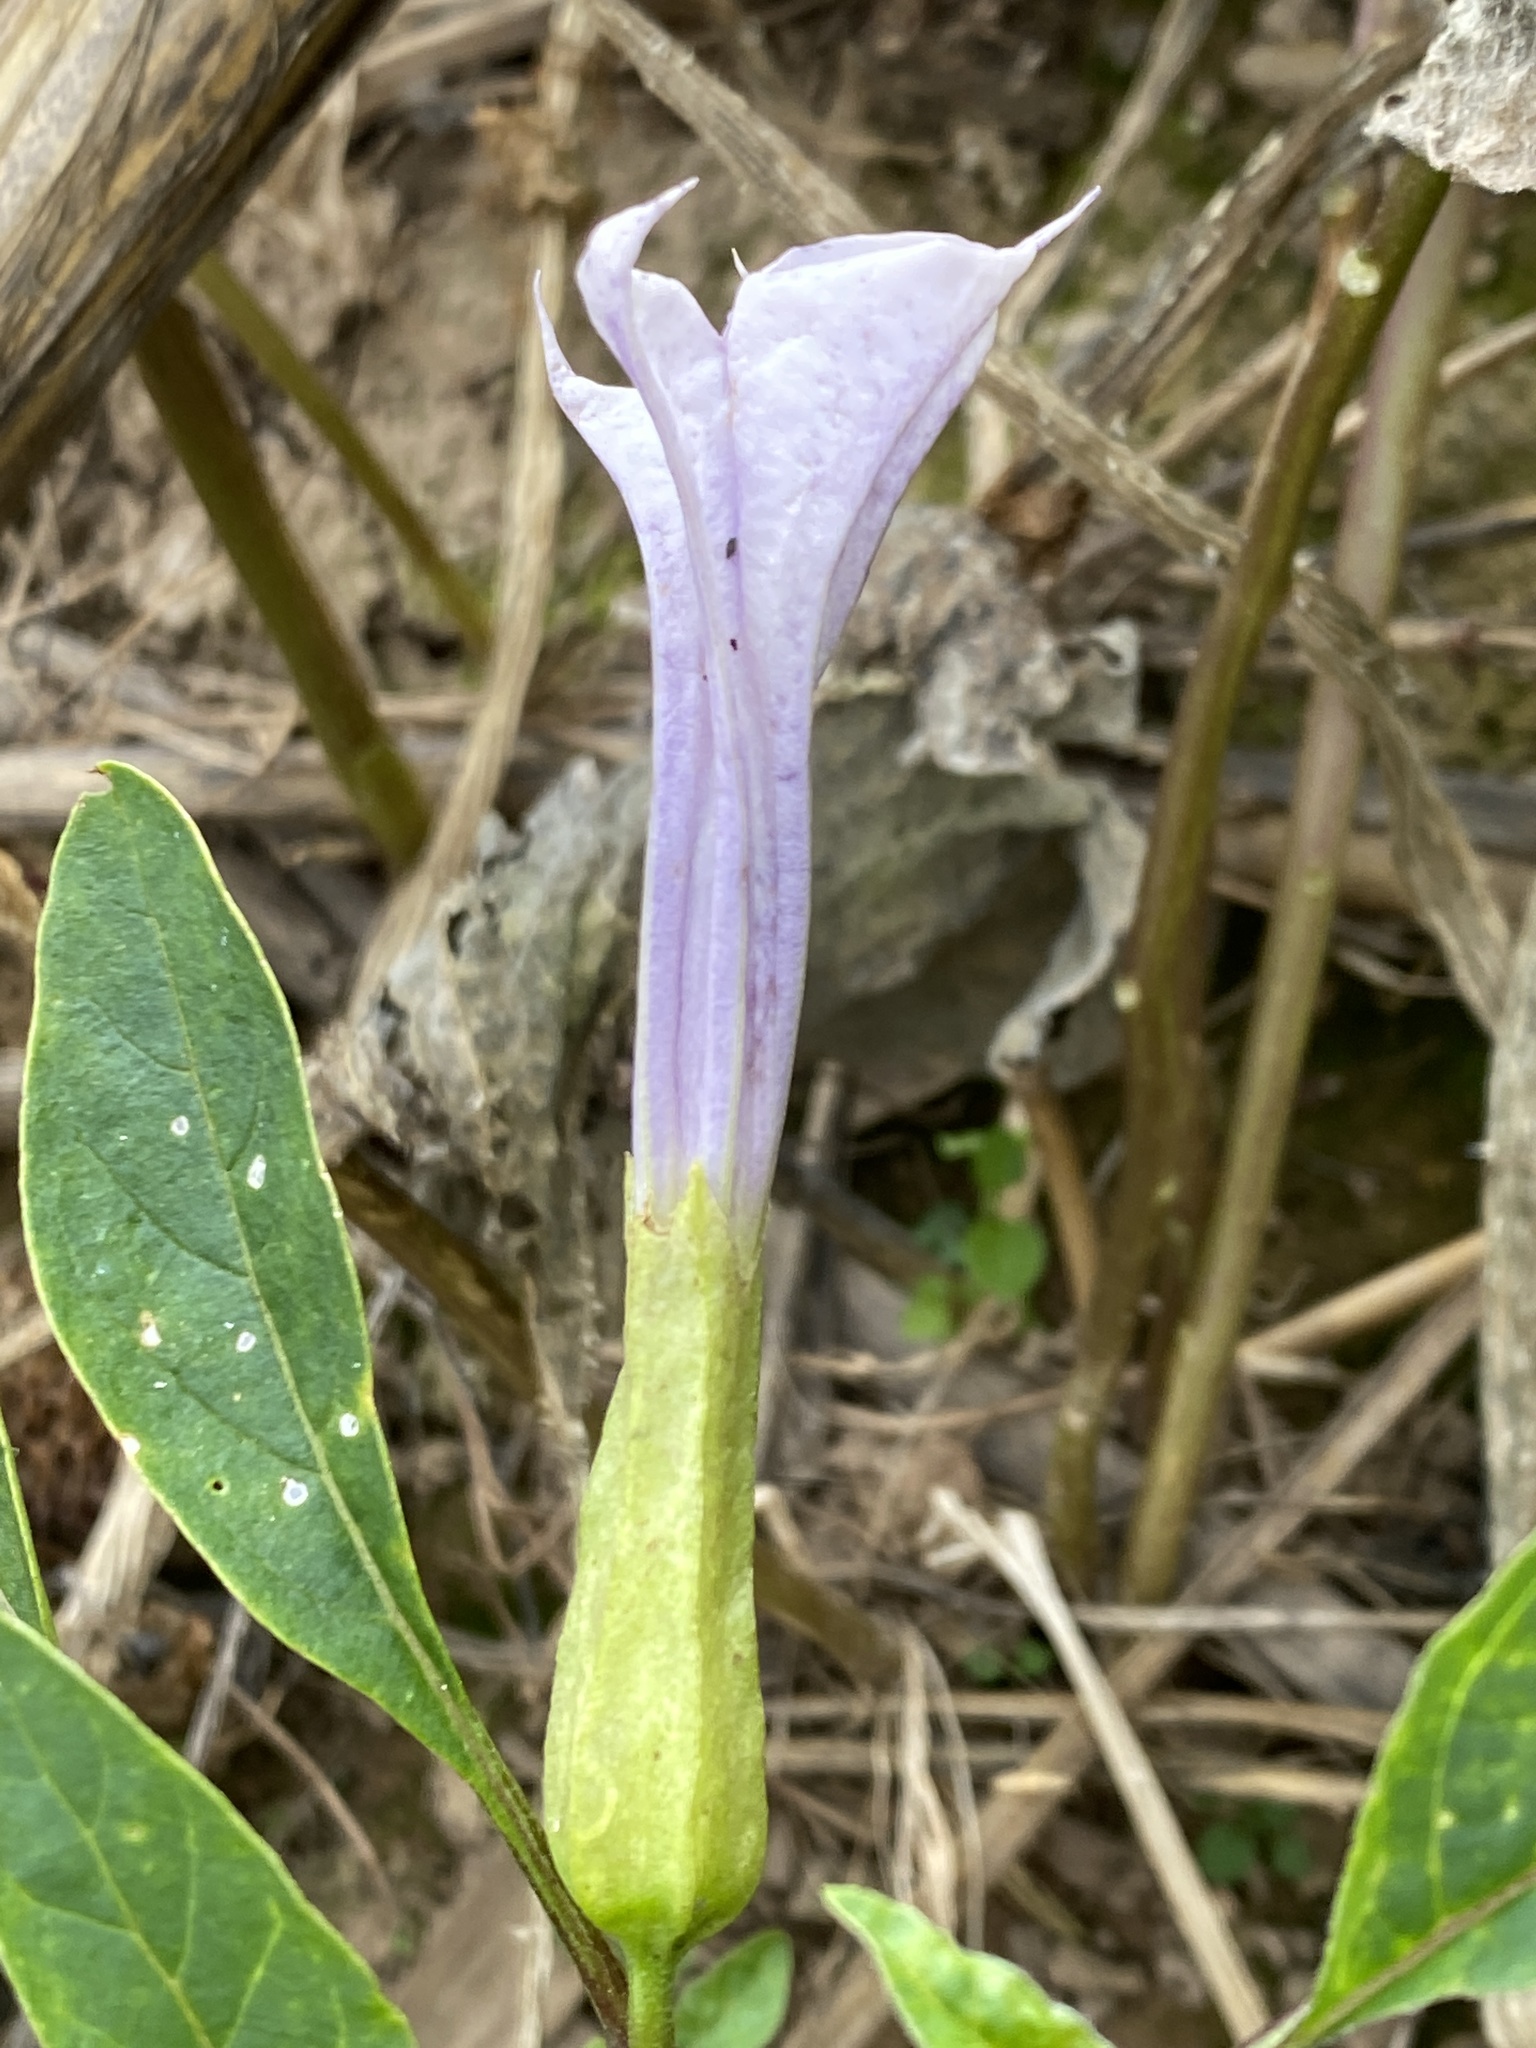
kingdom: Plantae
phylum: Tracheophyta
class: Magnoliopsida
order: Solanales
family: Solanaceae
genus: Datura
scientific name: Datura stramonium
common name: Thorn-apple
